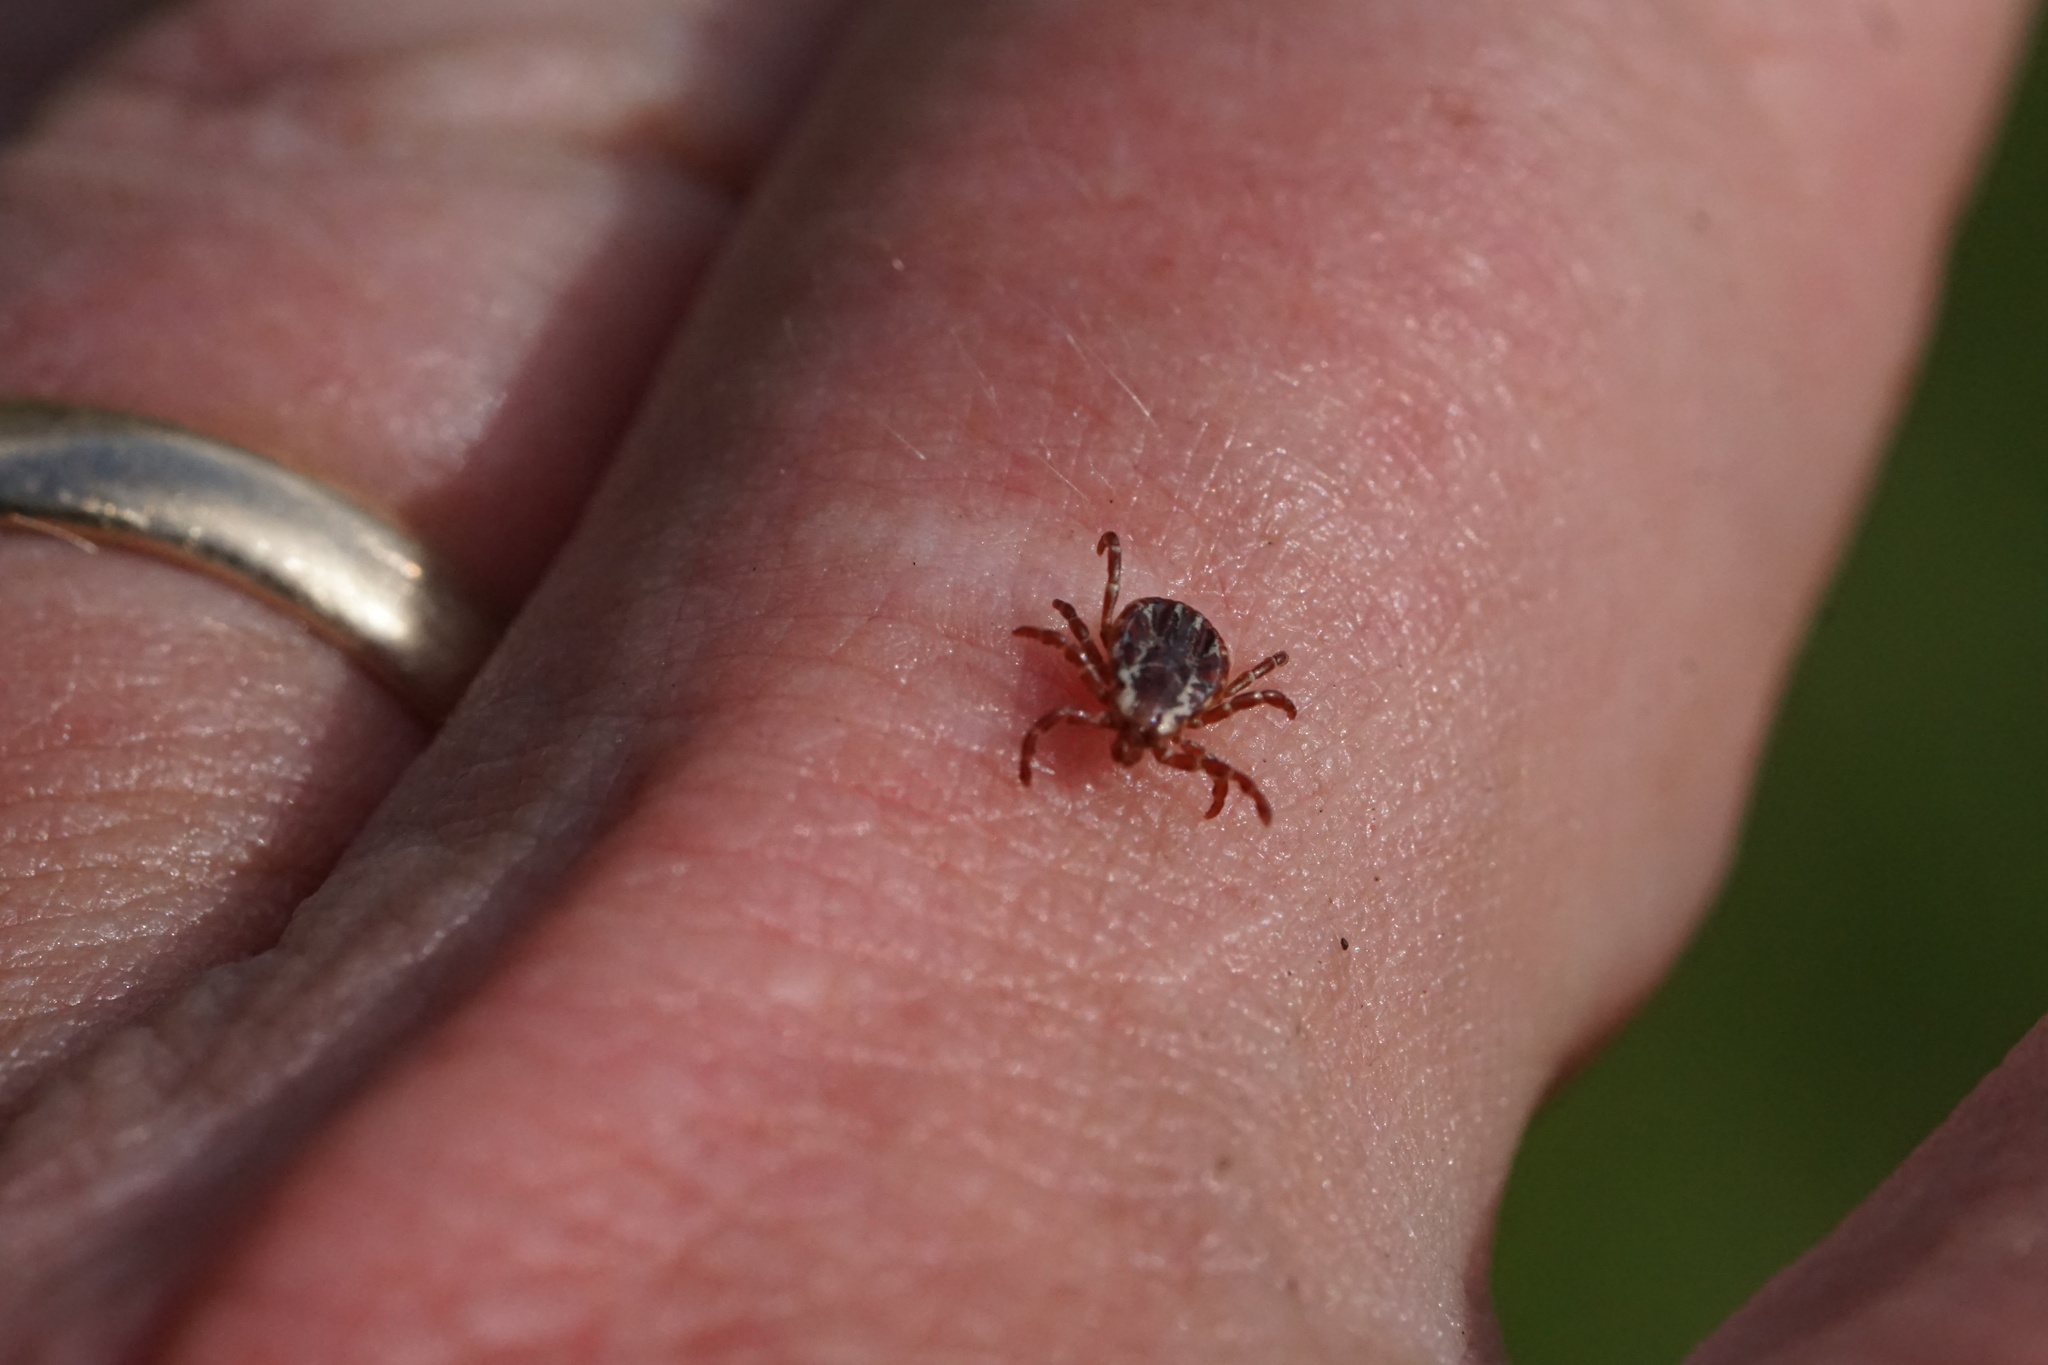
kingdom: Animalia
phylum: Arthropoda
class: Arachnida
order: Ixodida
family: Ixodidae
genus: Dermacentor
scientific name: Dermacentor variabilis
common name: American dog tick
